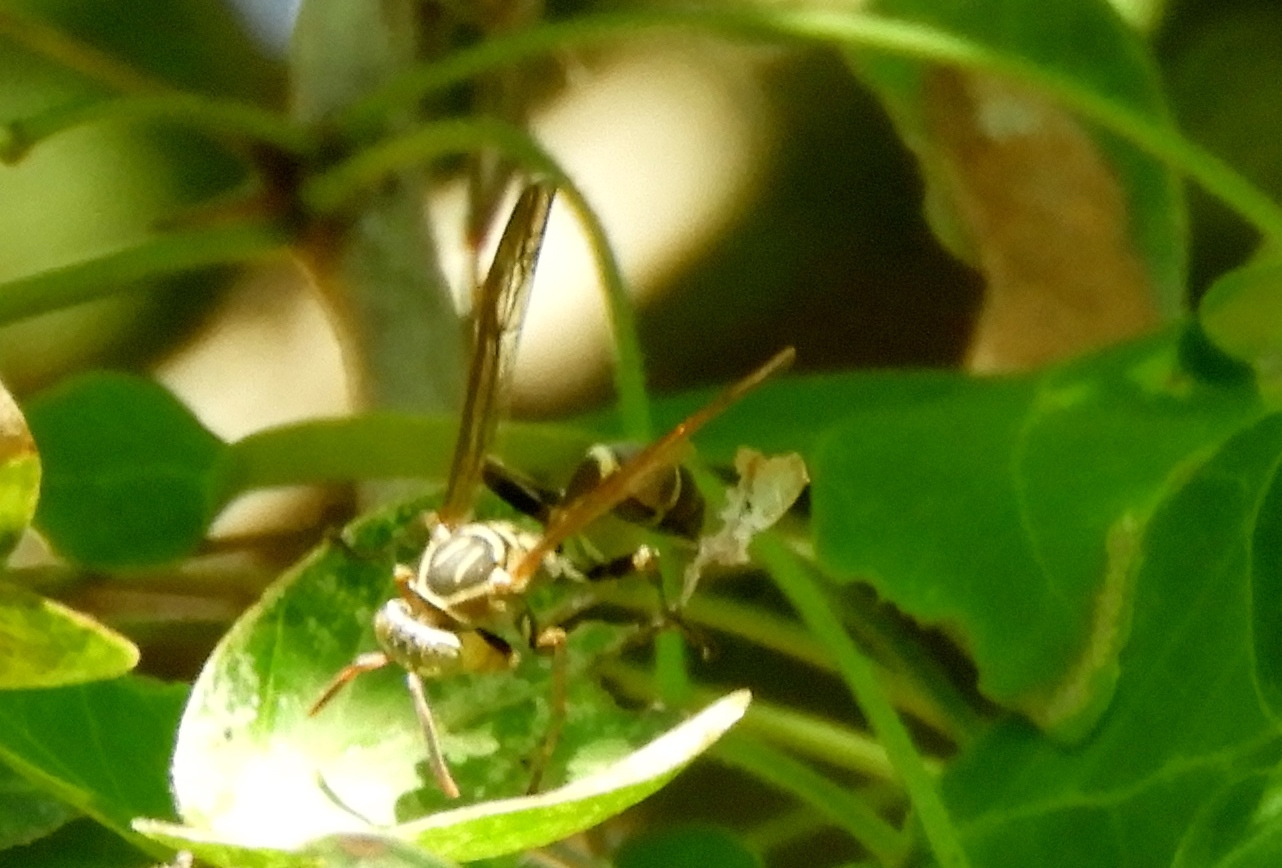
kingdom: Animalia
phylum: Arthropoda
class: Insecta
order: Hymenoptera
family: Vespidae
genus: Mischocyttarus
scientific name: Mischocyttarus mexicanus
